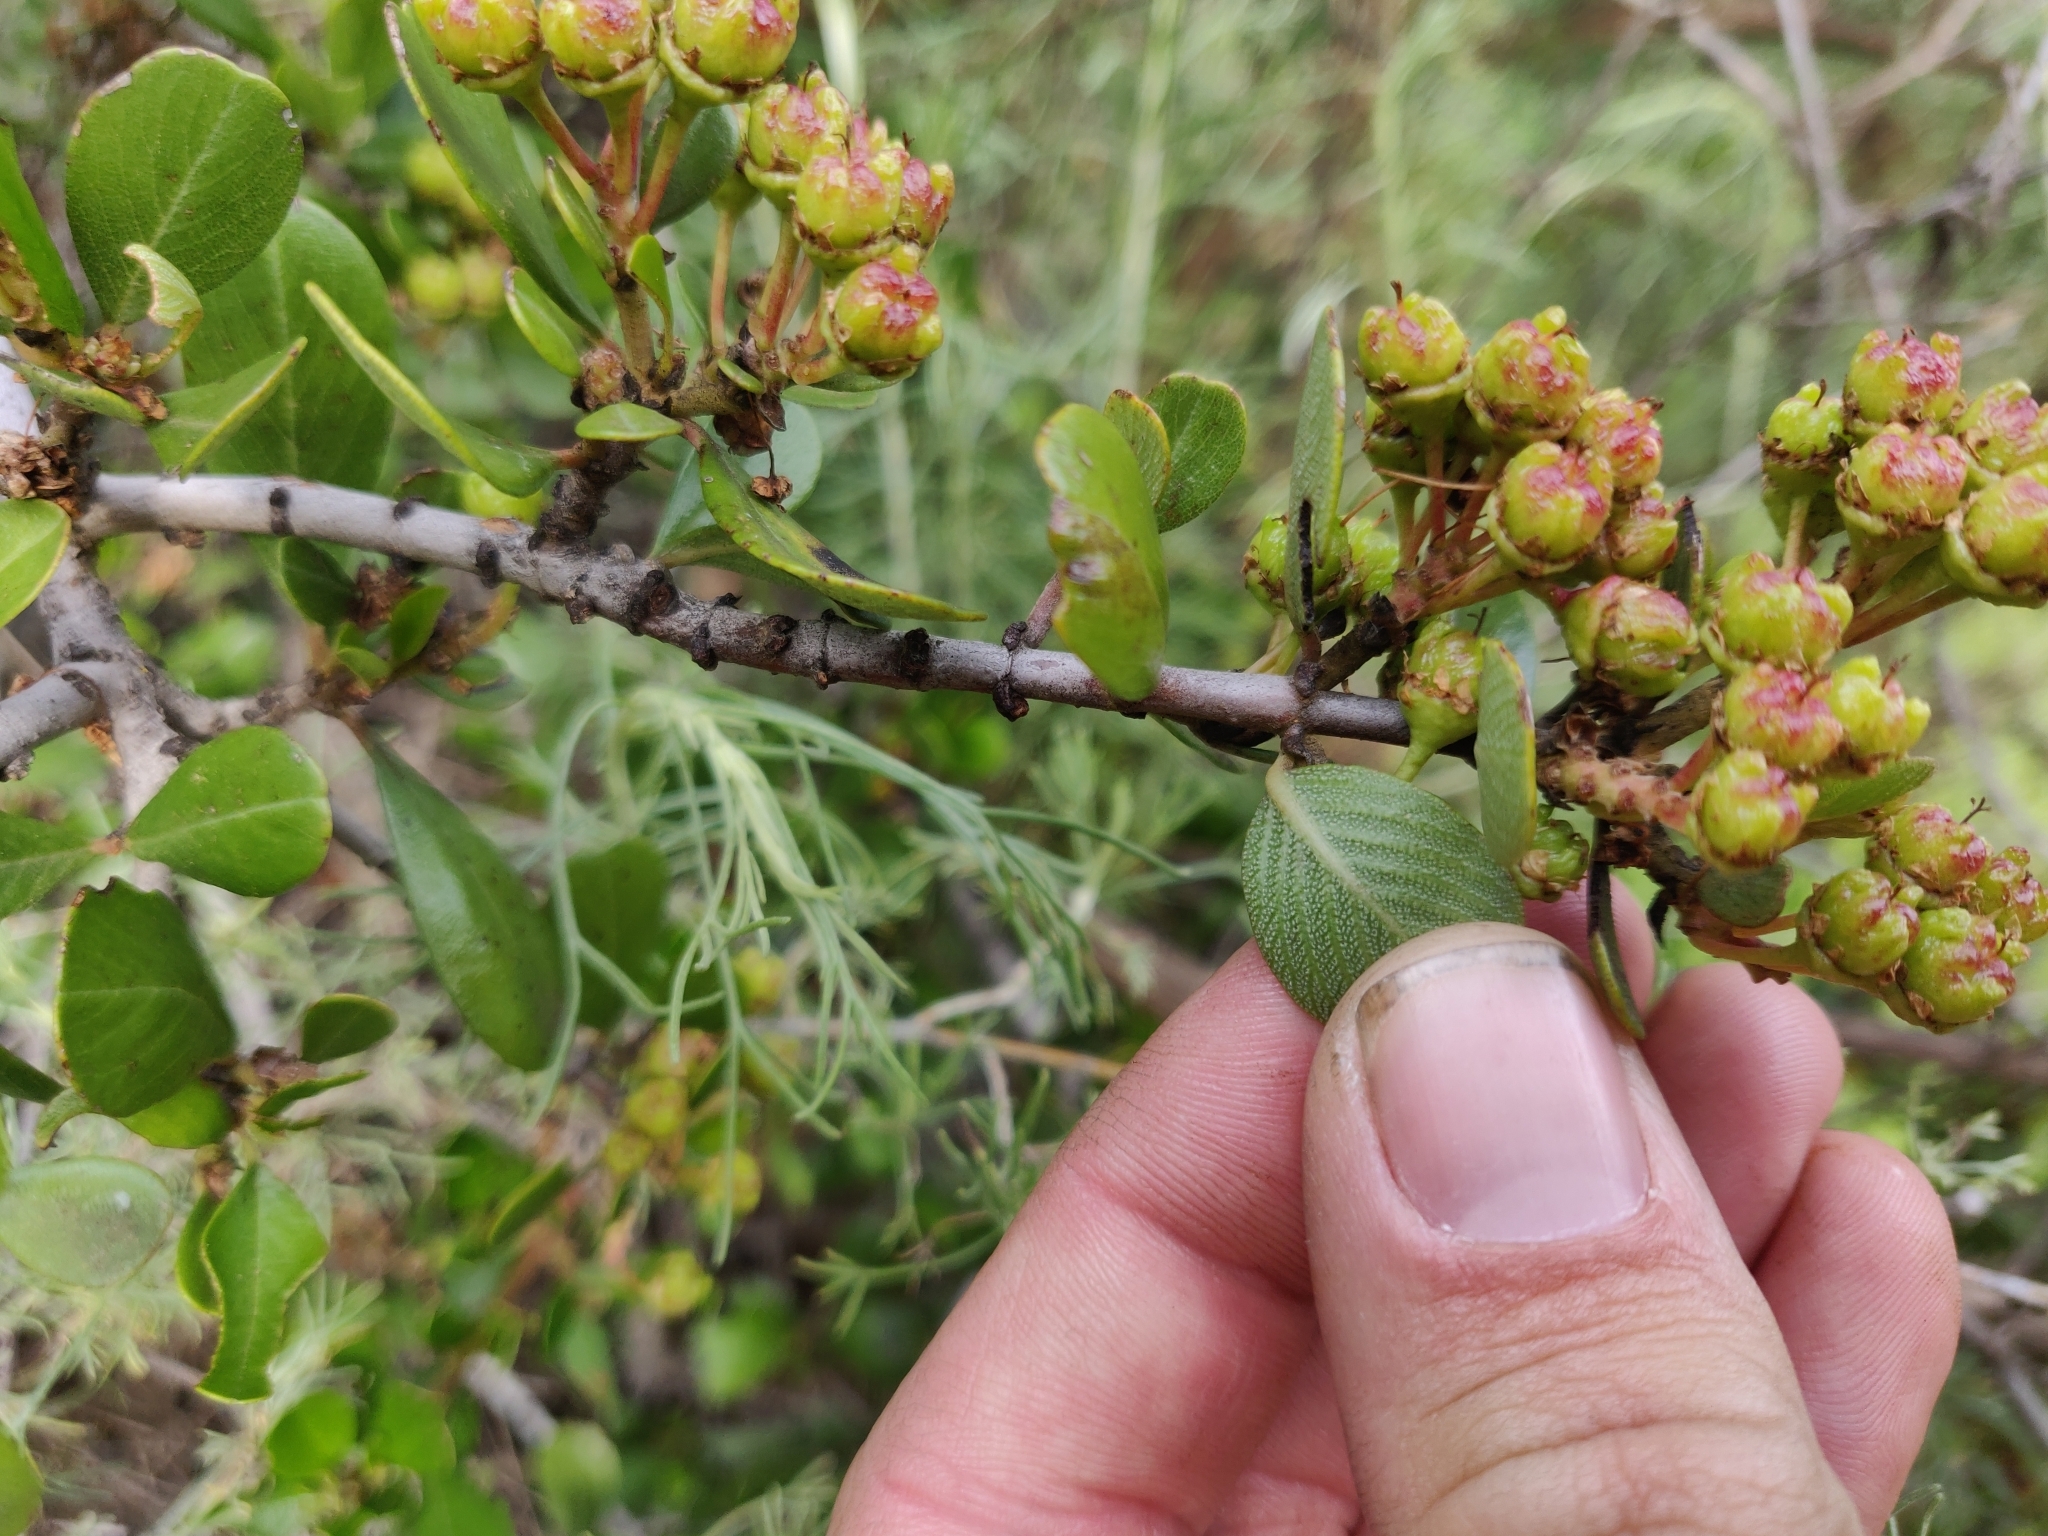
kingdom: Plantae
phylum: Tracheophyta
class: Magnoliopsida
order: Rosales
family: Rhamnaceae
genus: Ceanothus
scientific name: Ceanothus cuneatus
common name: Cuneate ceanothus
